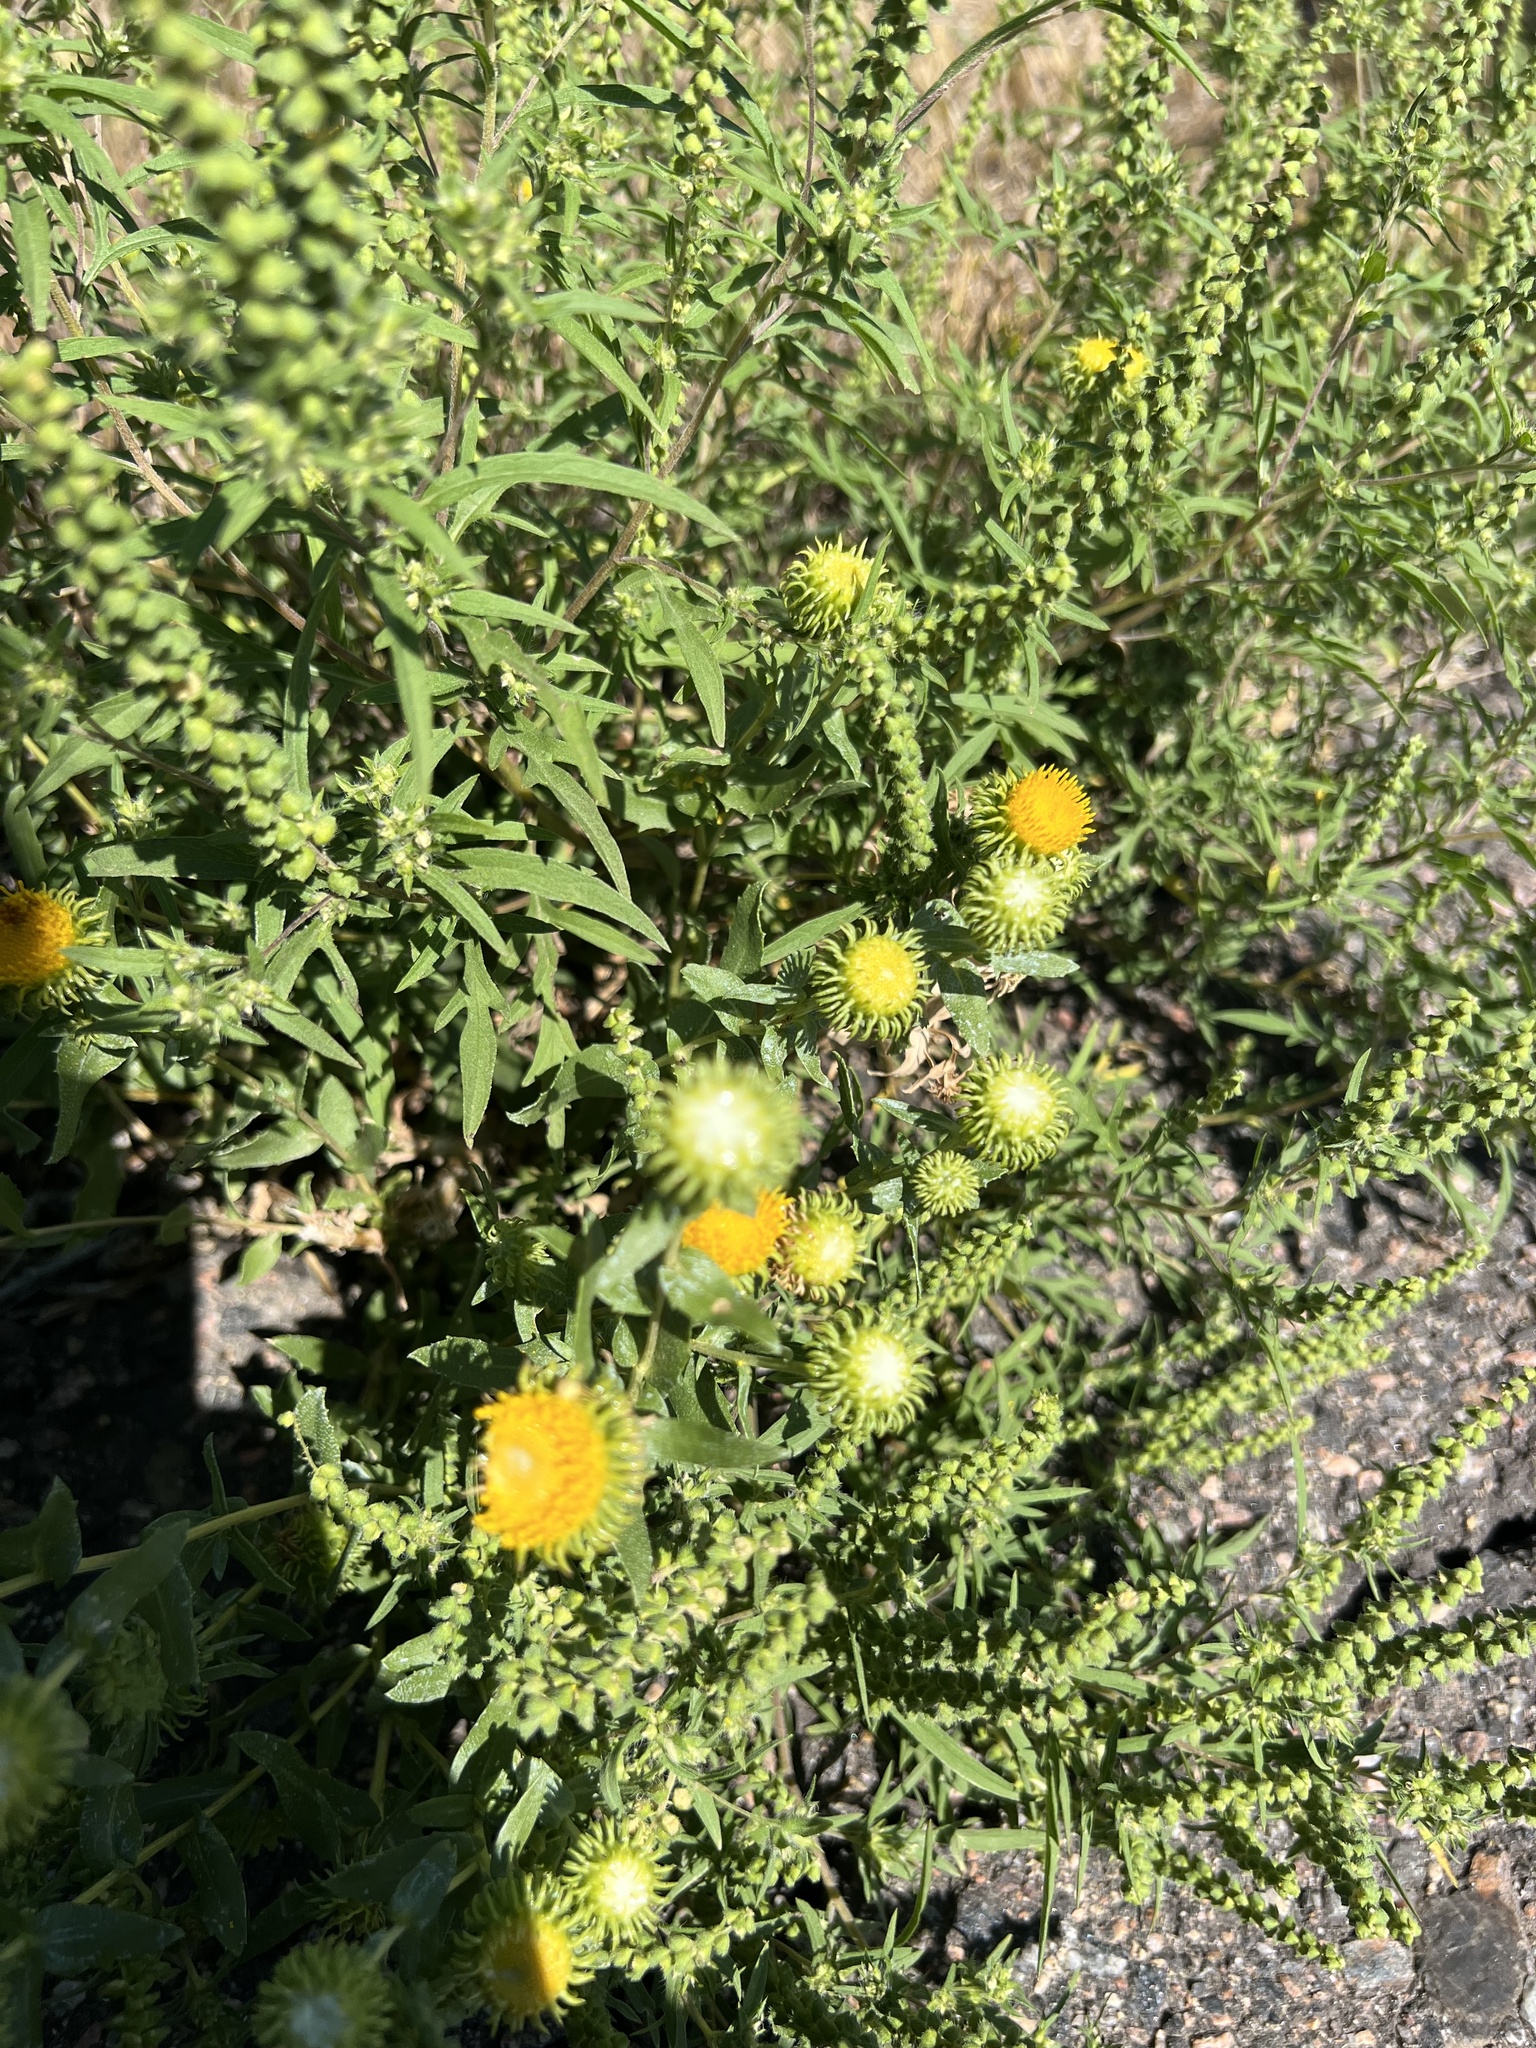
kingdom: Plantae
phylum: Tracheophyta
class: Magnoliopsida
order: Asterales
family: Asteraceae
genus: Grindelia
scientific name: Grindelia hirsutula
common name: Hairy gumweed
